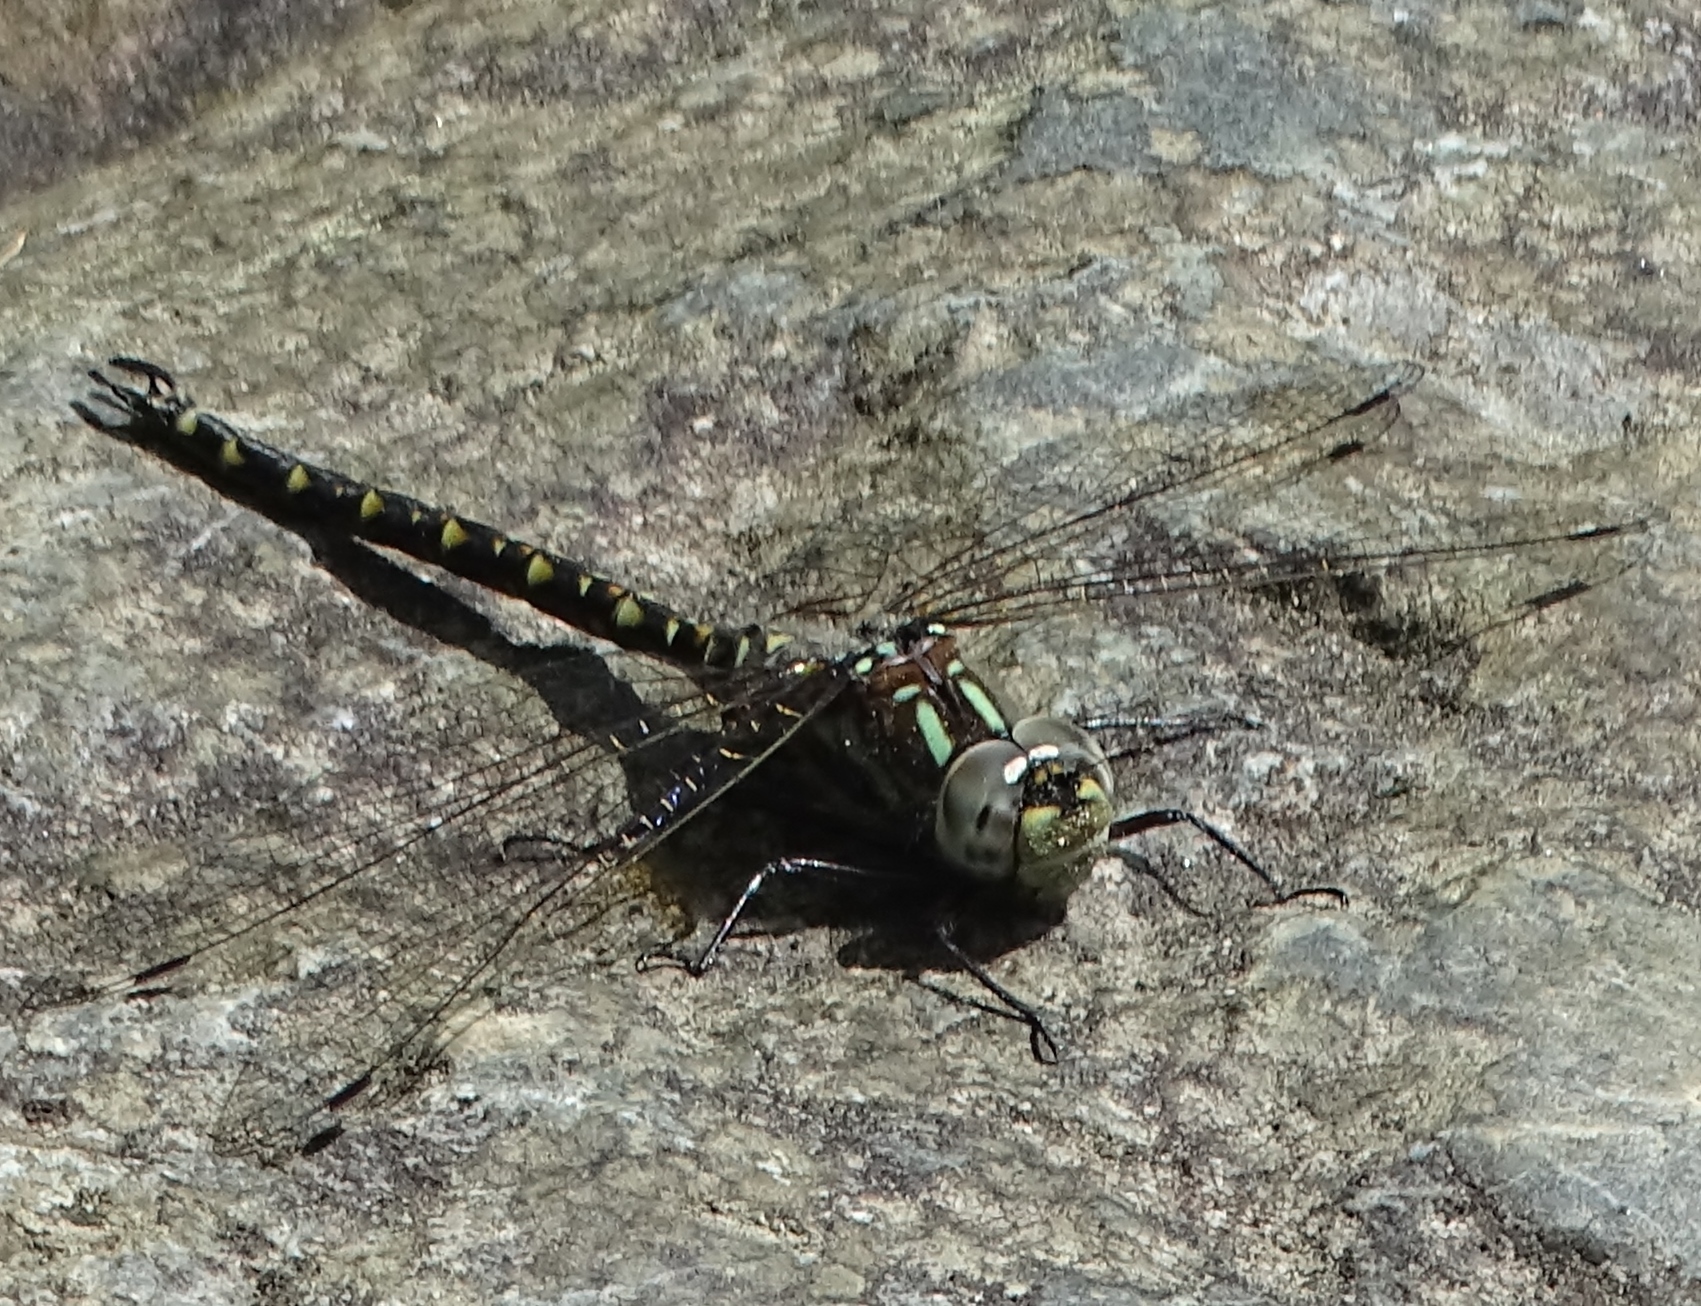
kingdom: Animalia
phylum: Arthropoda
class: Insecta
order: Odonata
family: Aeshnidae
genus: Gomphaeschna
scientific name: Gomphaeschna furcillata
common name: Harlequin darner
